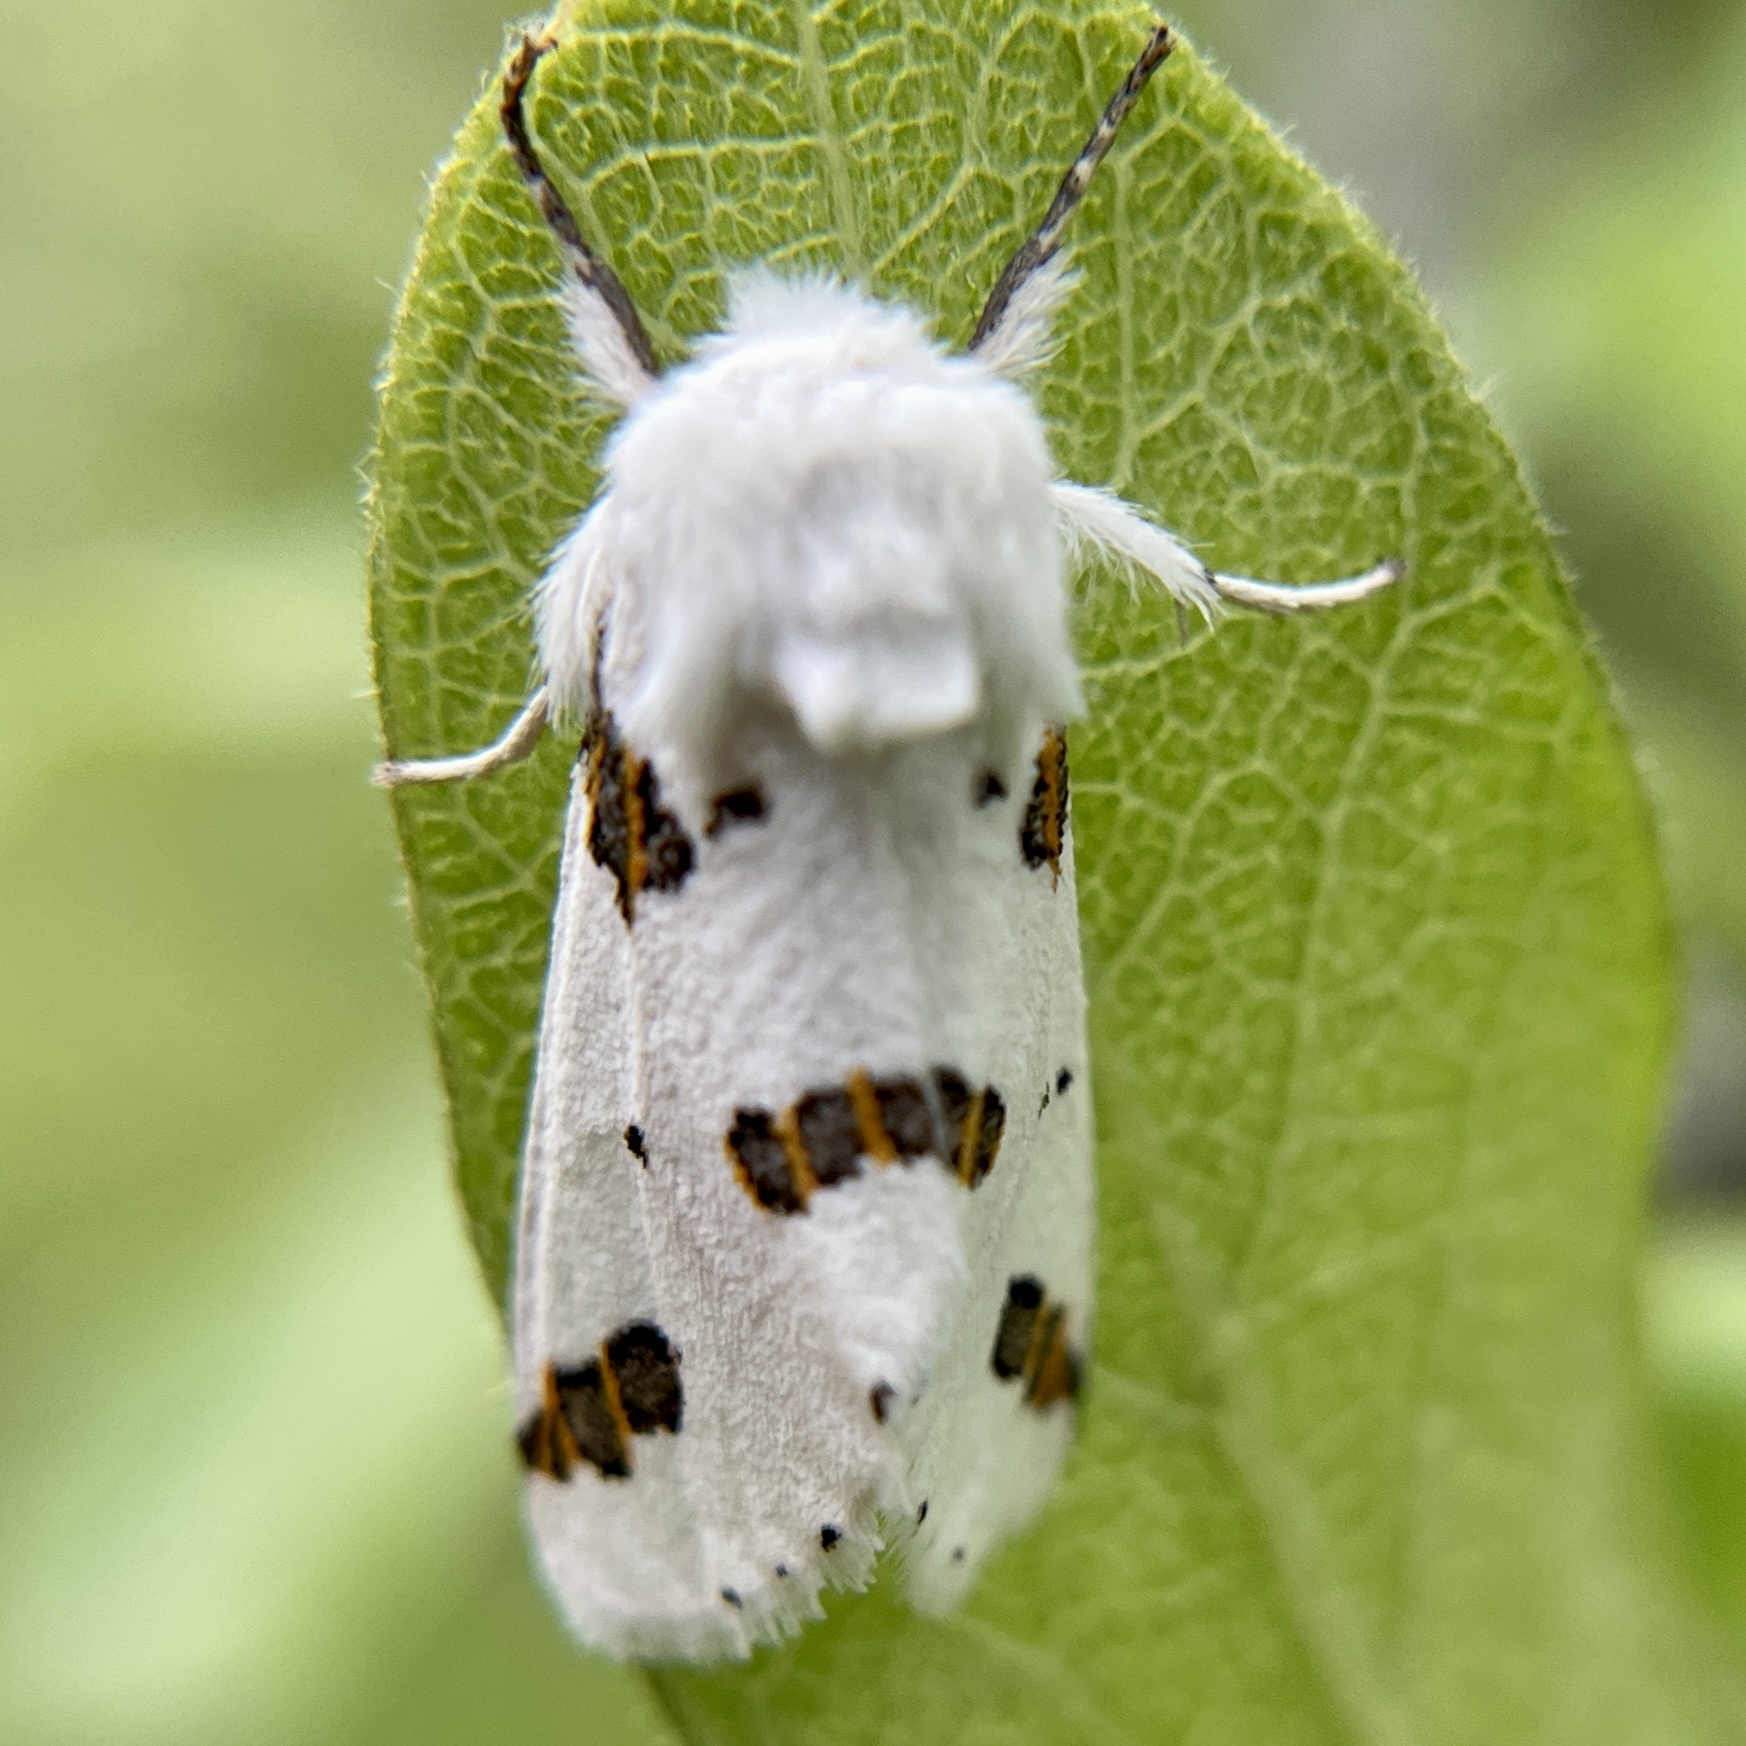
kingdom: Animalia
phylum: Arthropoda
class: Insecta
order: Lepidoptera
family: Erebidae
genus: Euerythra
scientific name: Euerythra trimaculata
